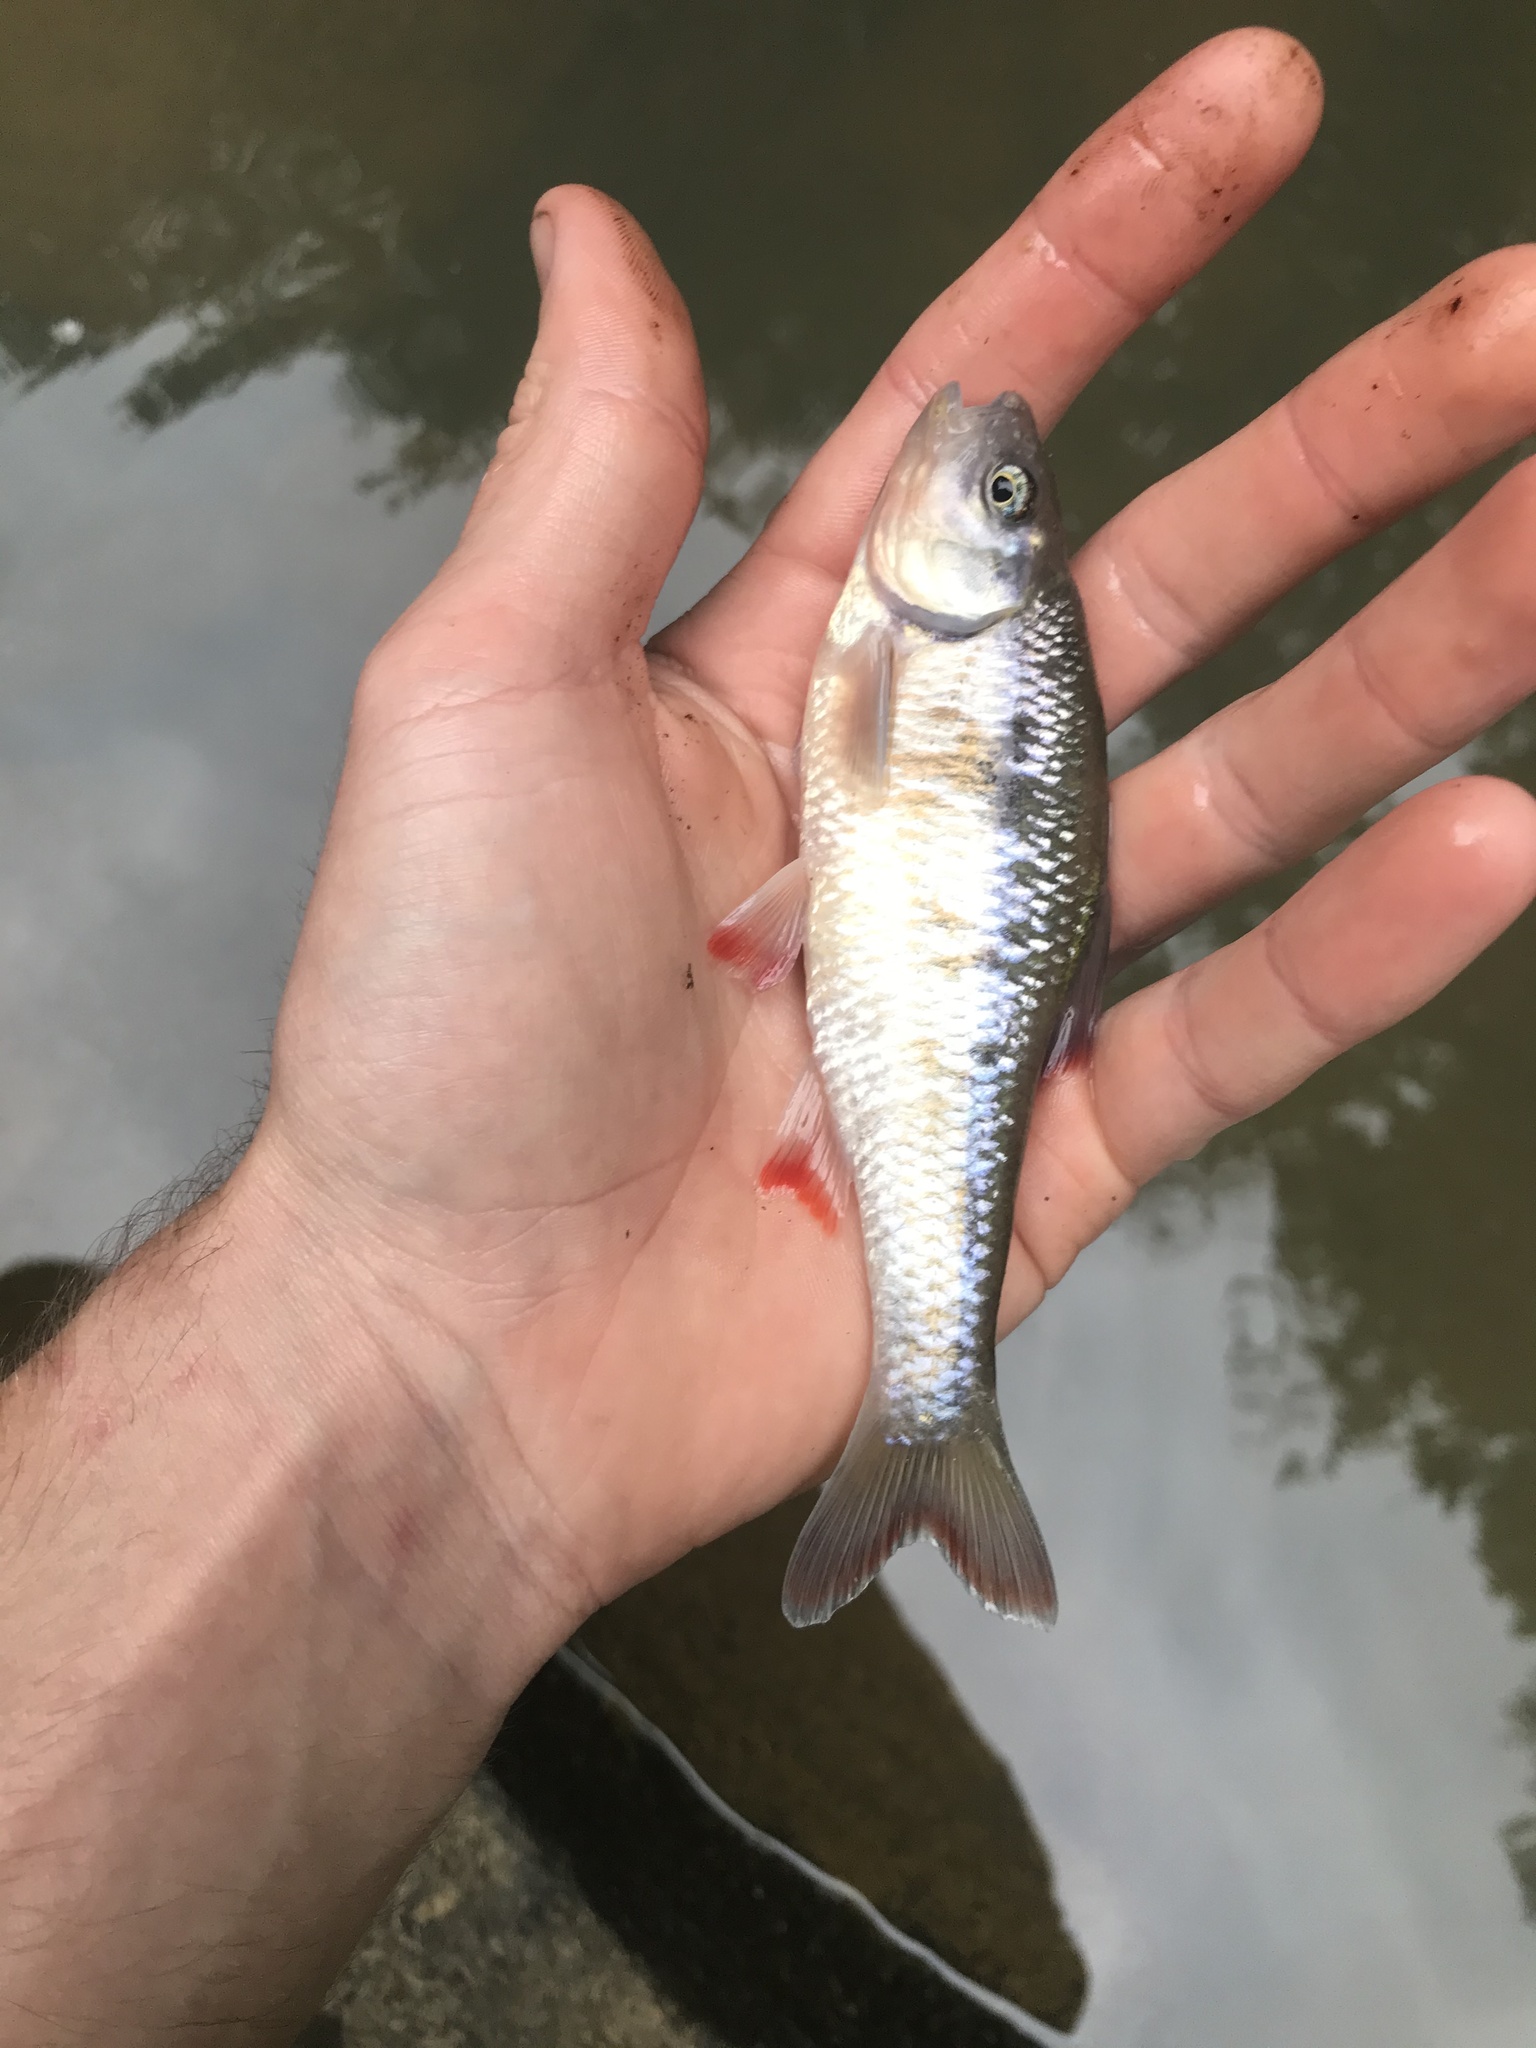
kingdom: Animalia
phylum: Chordata
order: Cypriniformes
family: Cyprinidae
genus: Luxilus
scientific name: Luxilus albeolus
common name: White shiner
